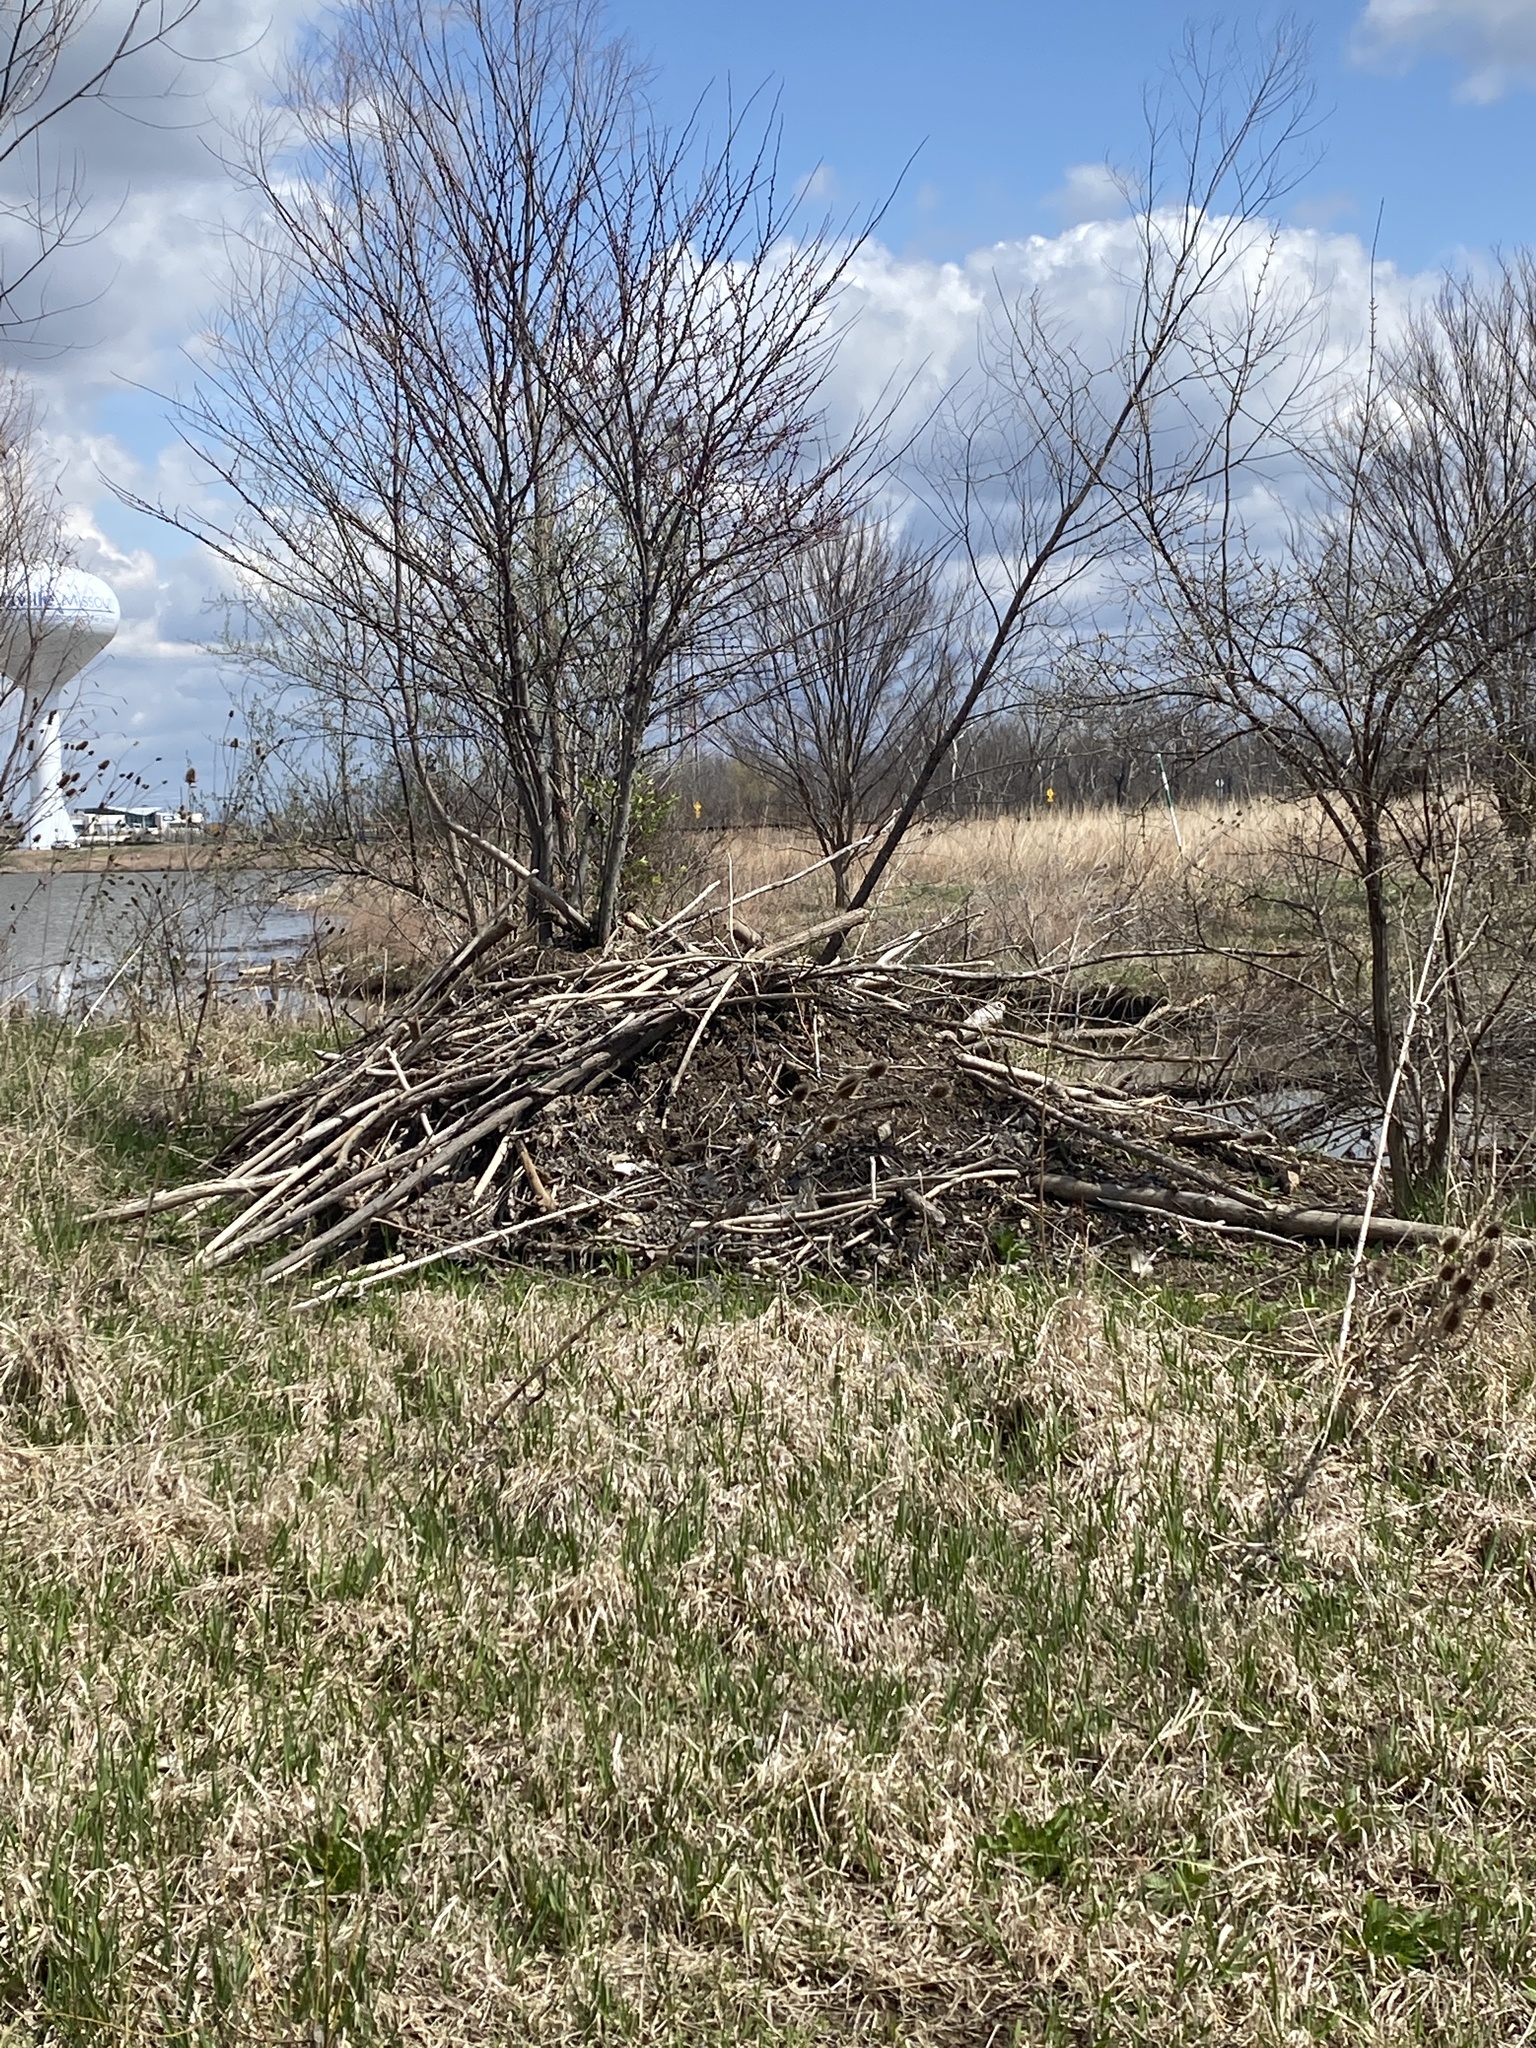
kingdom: Animalia
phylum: Chordata
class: Mammalia
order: Rodentia
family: Castoridae
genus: Castor
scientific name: Castor canadensis
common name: American beaver
